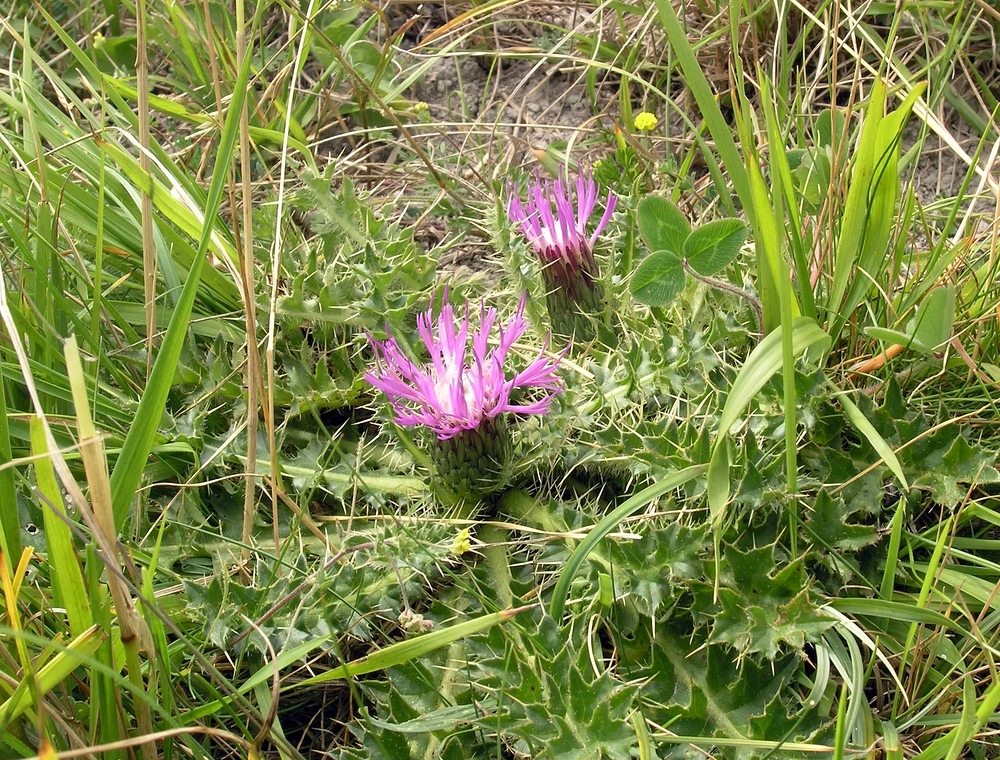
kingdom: Plantae
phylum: Tracheophyta
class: Magnoliopsida
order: Asterales
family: Asteraceae
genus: Cirsium
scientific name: Cirsium acaulon
